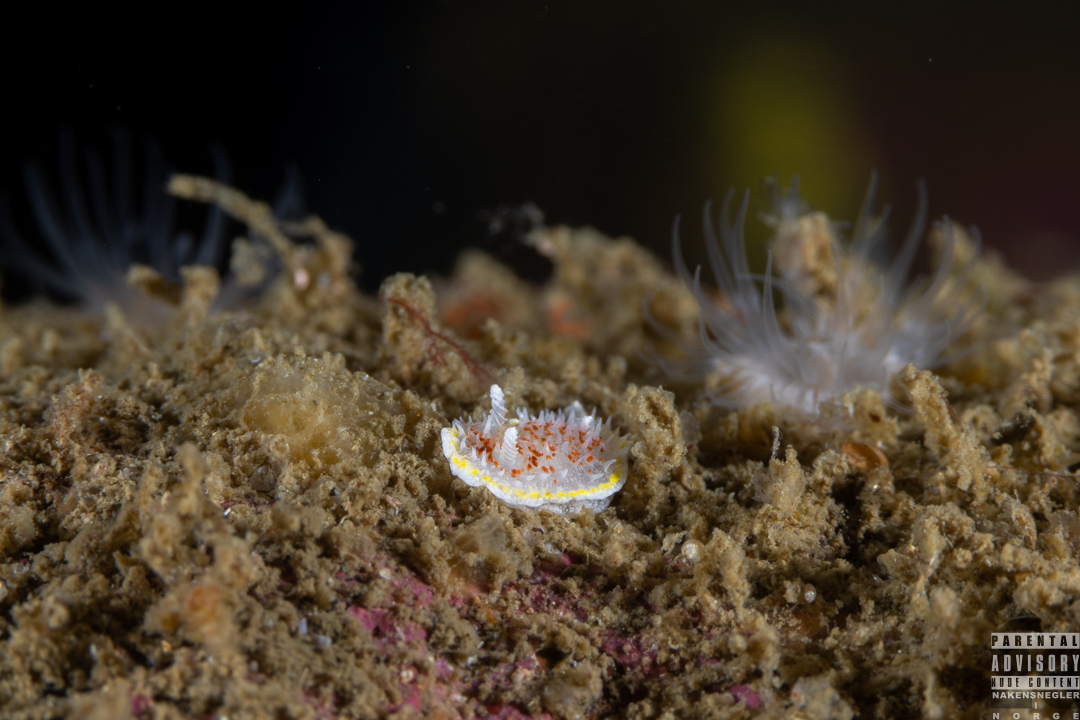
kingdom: Animalia
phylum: Mollusca
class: Gastropoda
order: Nudibranchia
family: Calycidorididae
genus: Diaphorodoris
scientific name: Diaphorodoris luteocincta
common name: Fried egg nudibranch
